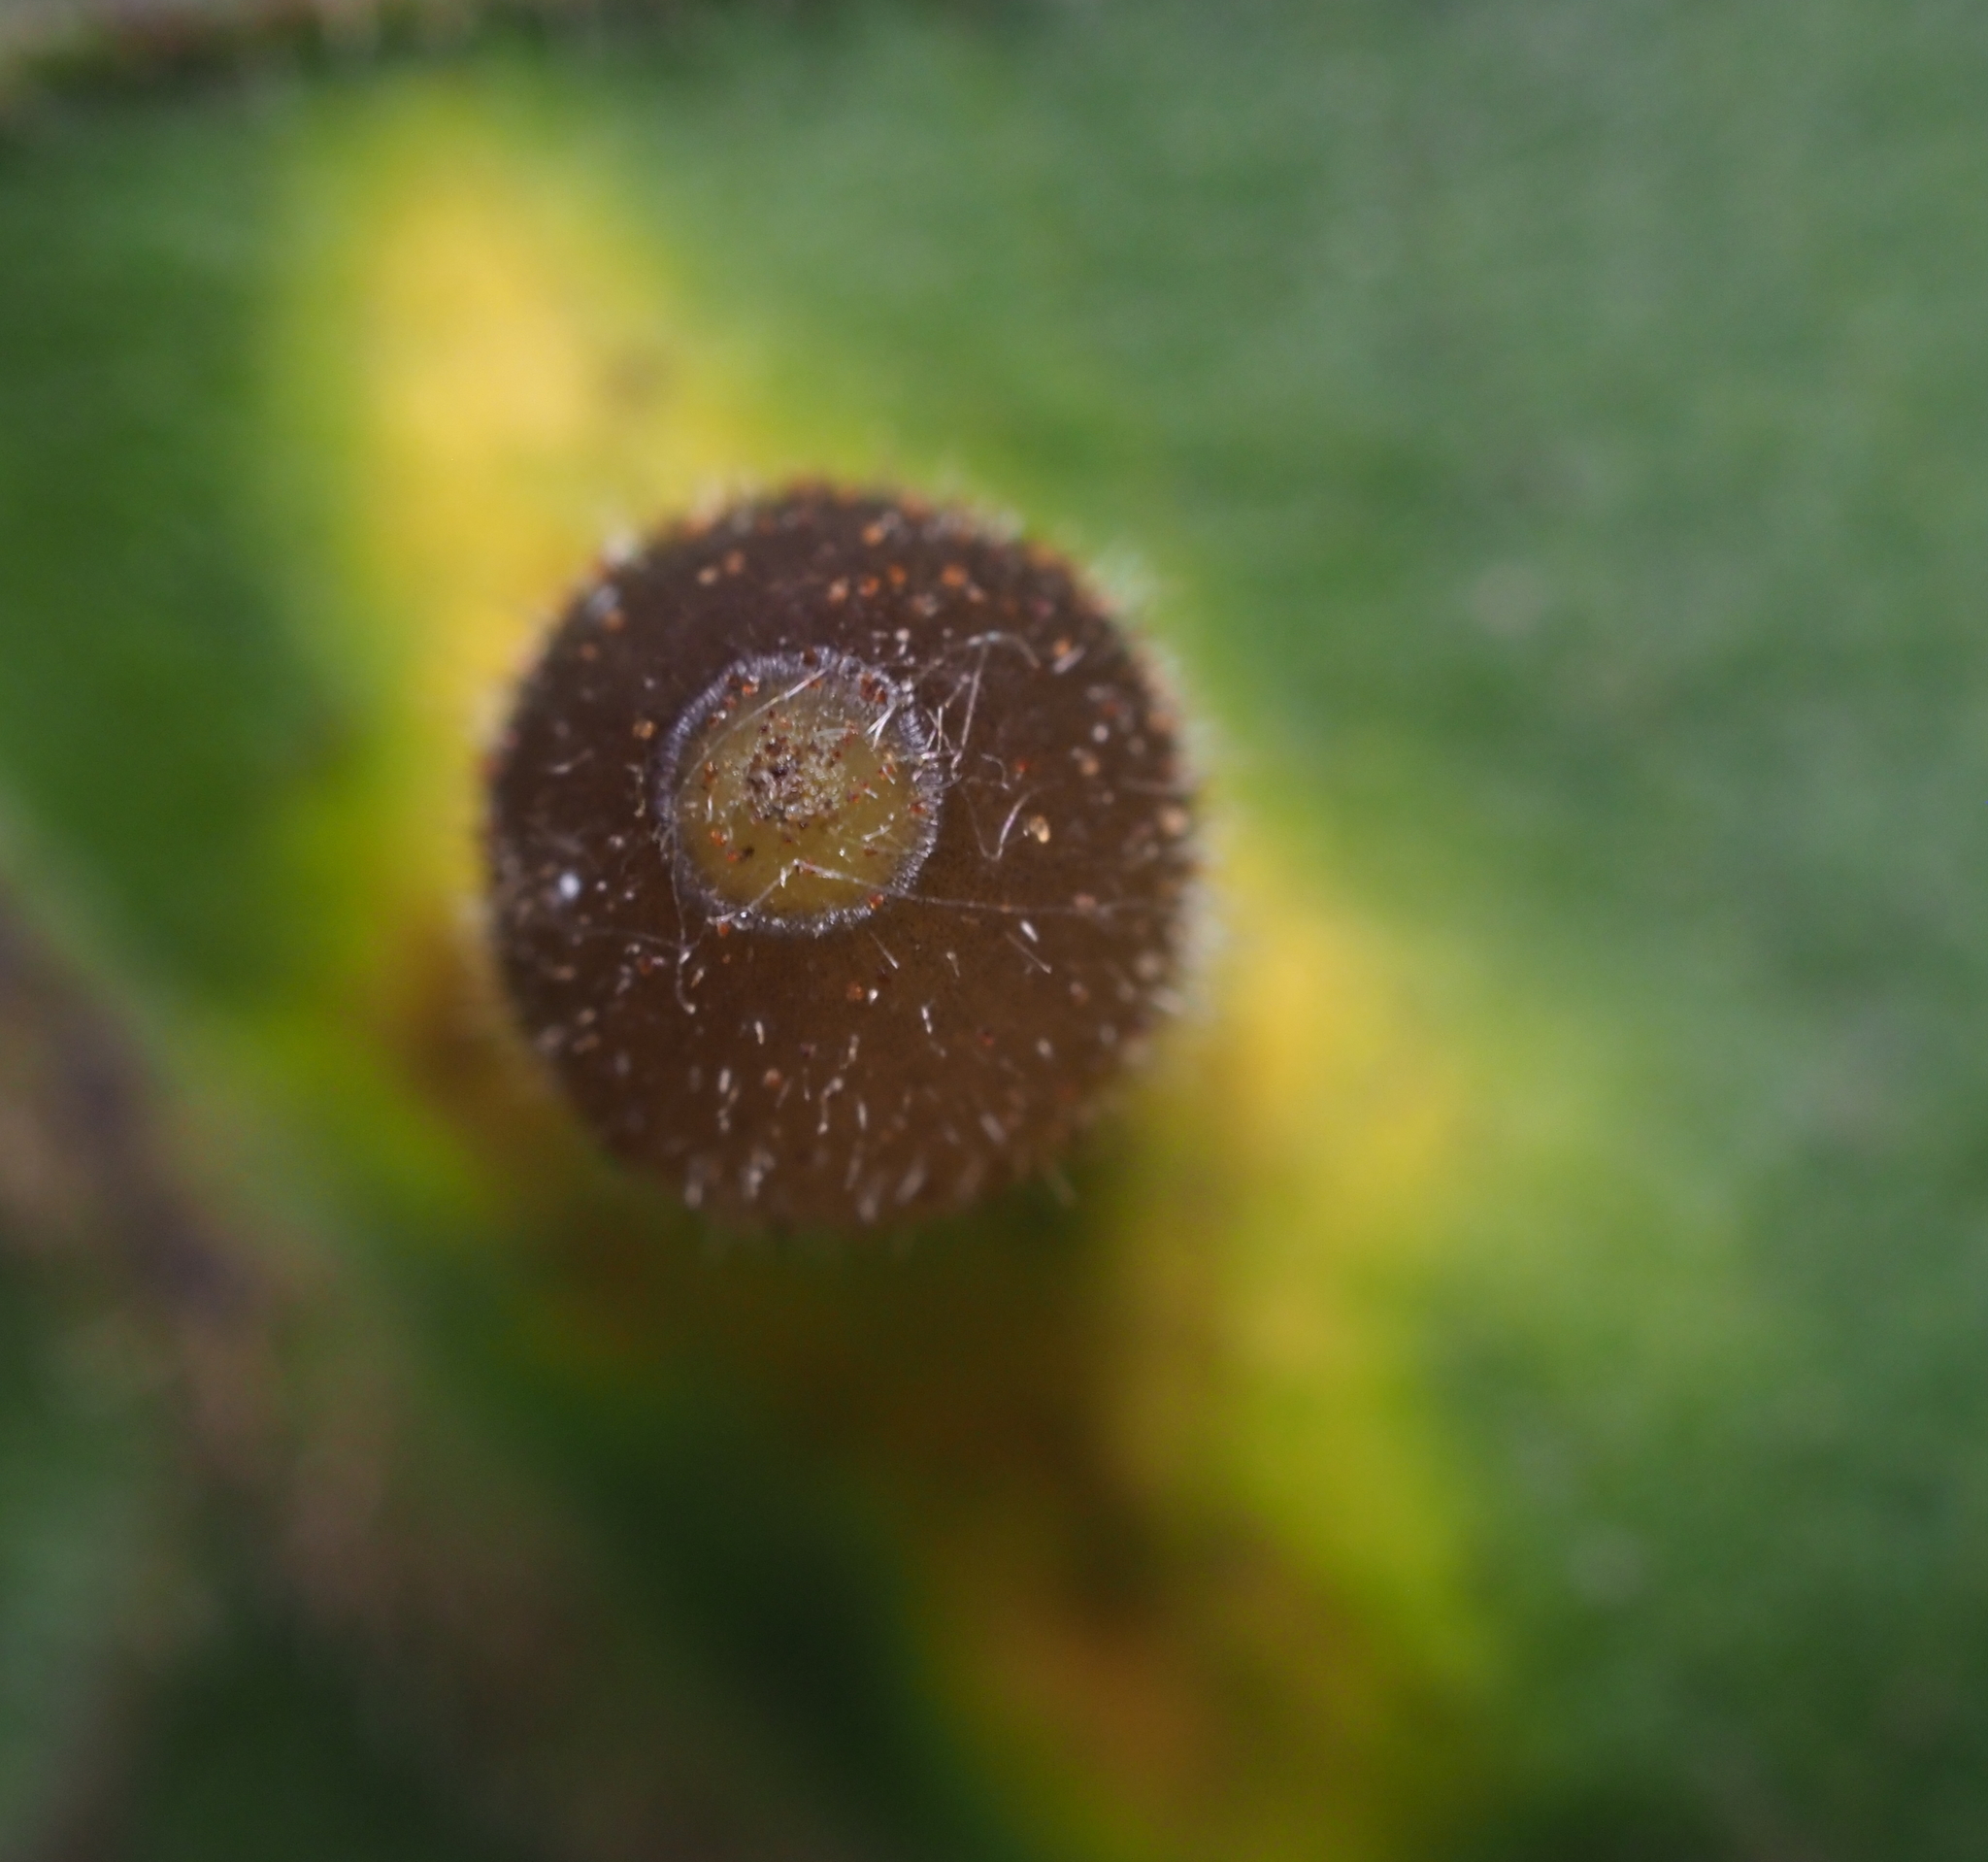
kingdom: Animalia
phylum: Arthropoda
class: Insecta
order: Diptera
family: Cecidomyiidae
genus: Caryomyia
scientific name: Caryomyia viscidolium
